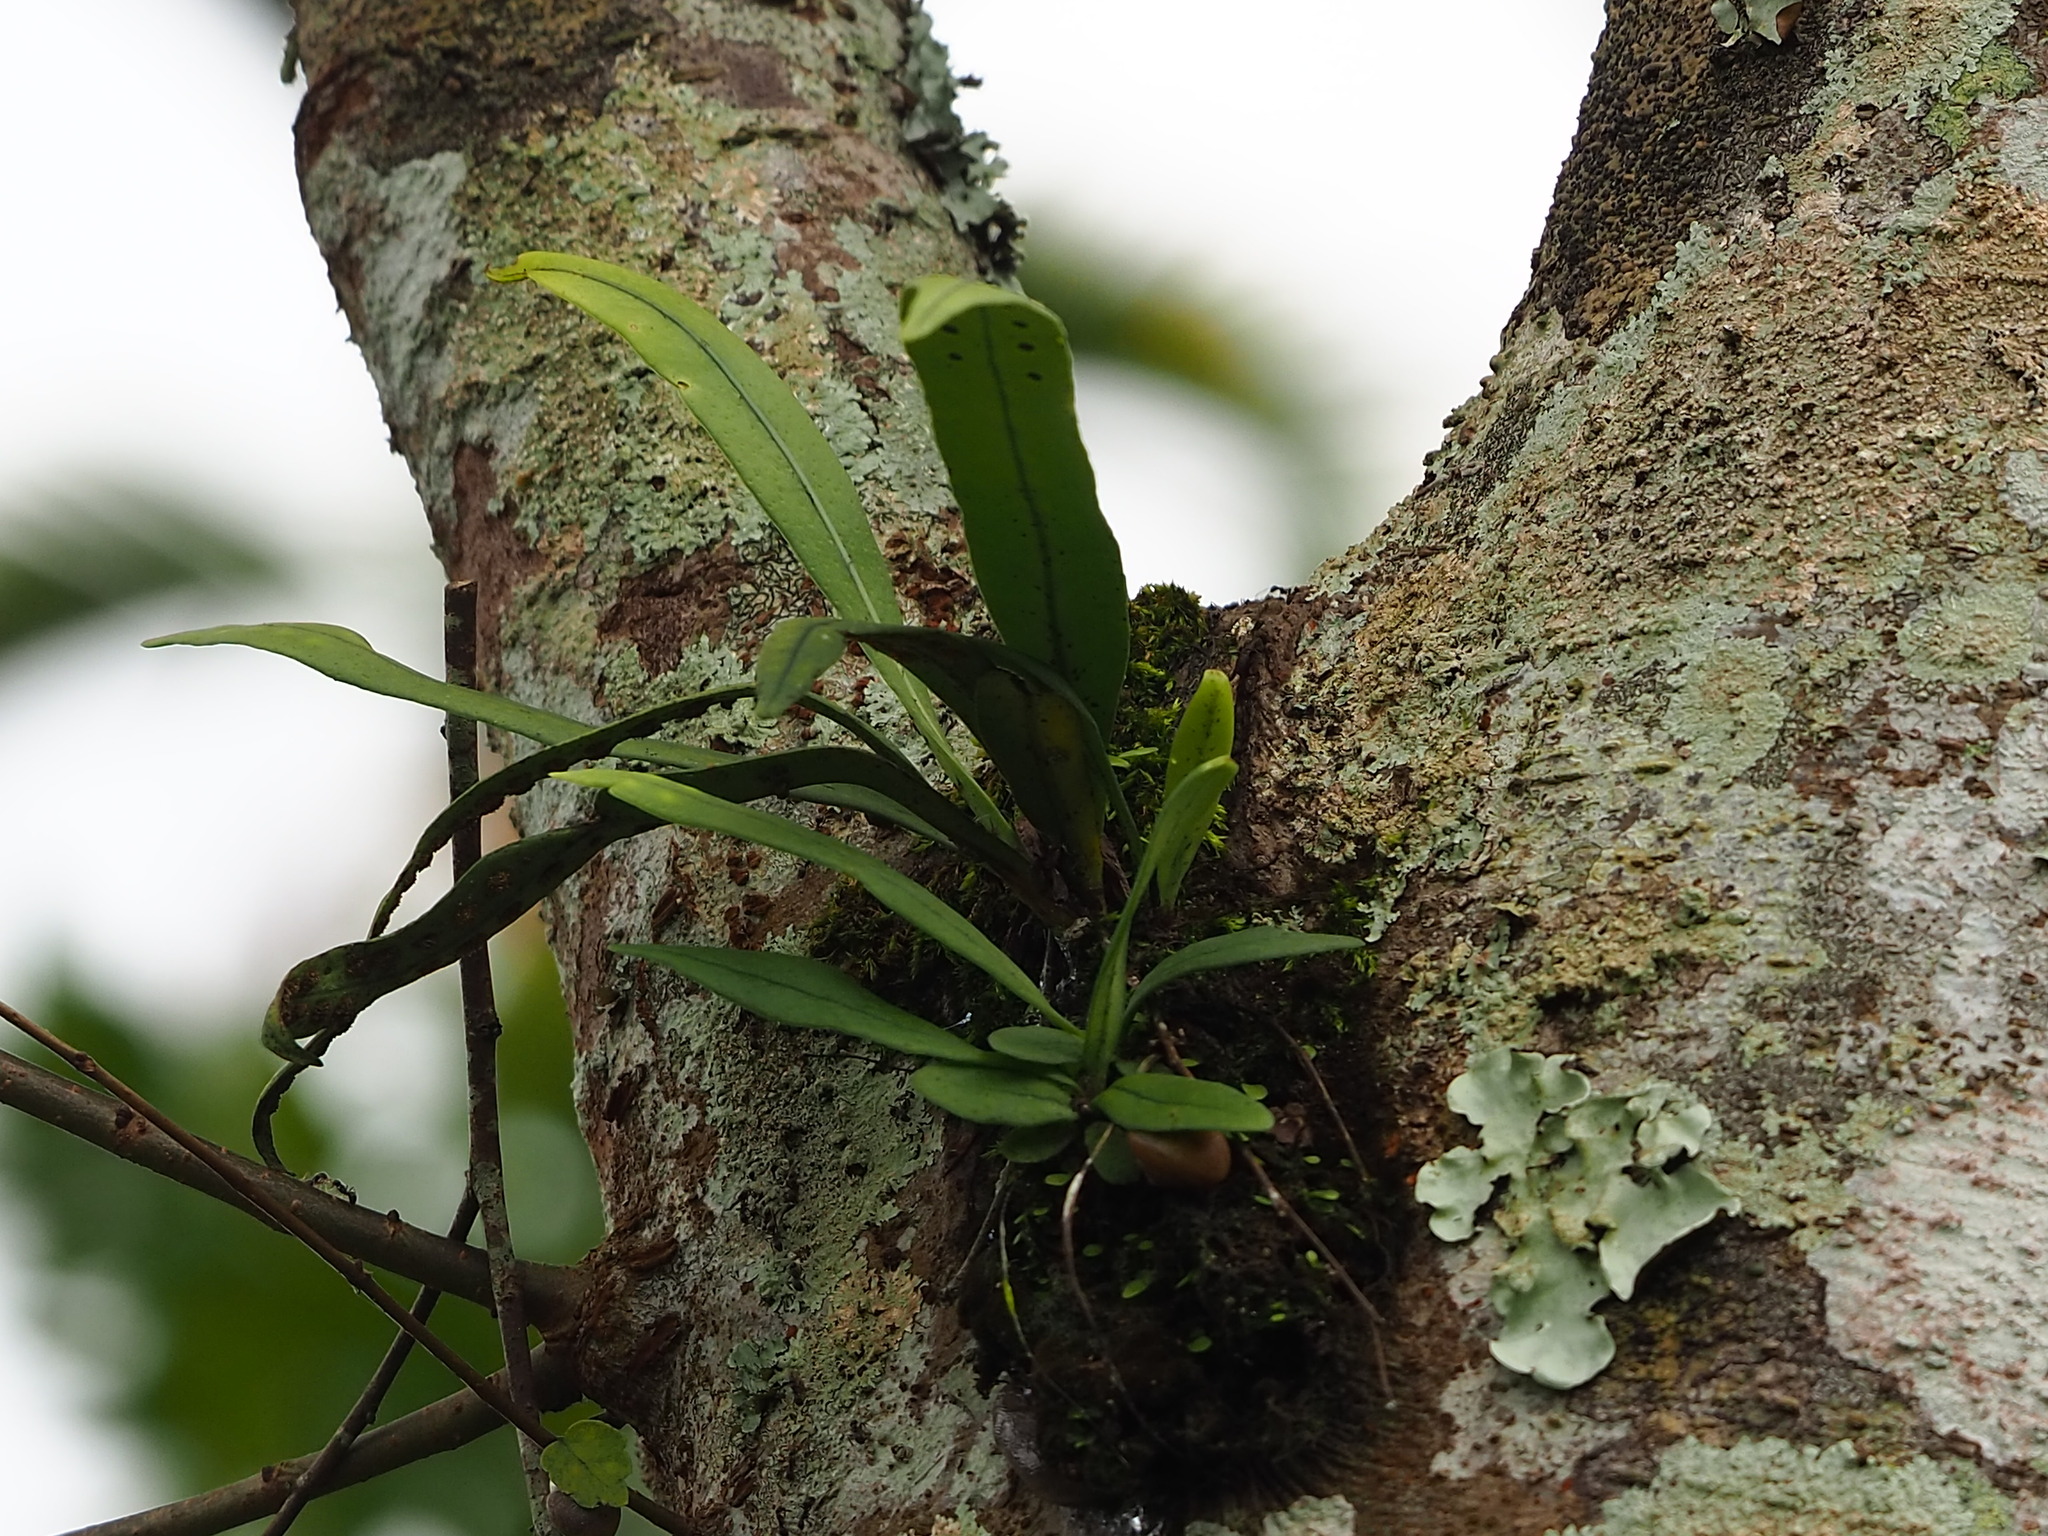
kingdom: Plantae
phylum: Tracheophyta
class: Polypodiopsida
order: Polypodiales
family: Polypodiaceae
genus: Lepisorus
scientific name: Lepisorus thunbergianus
